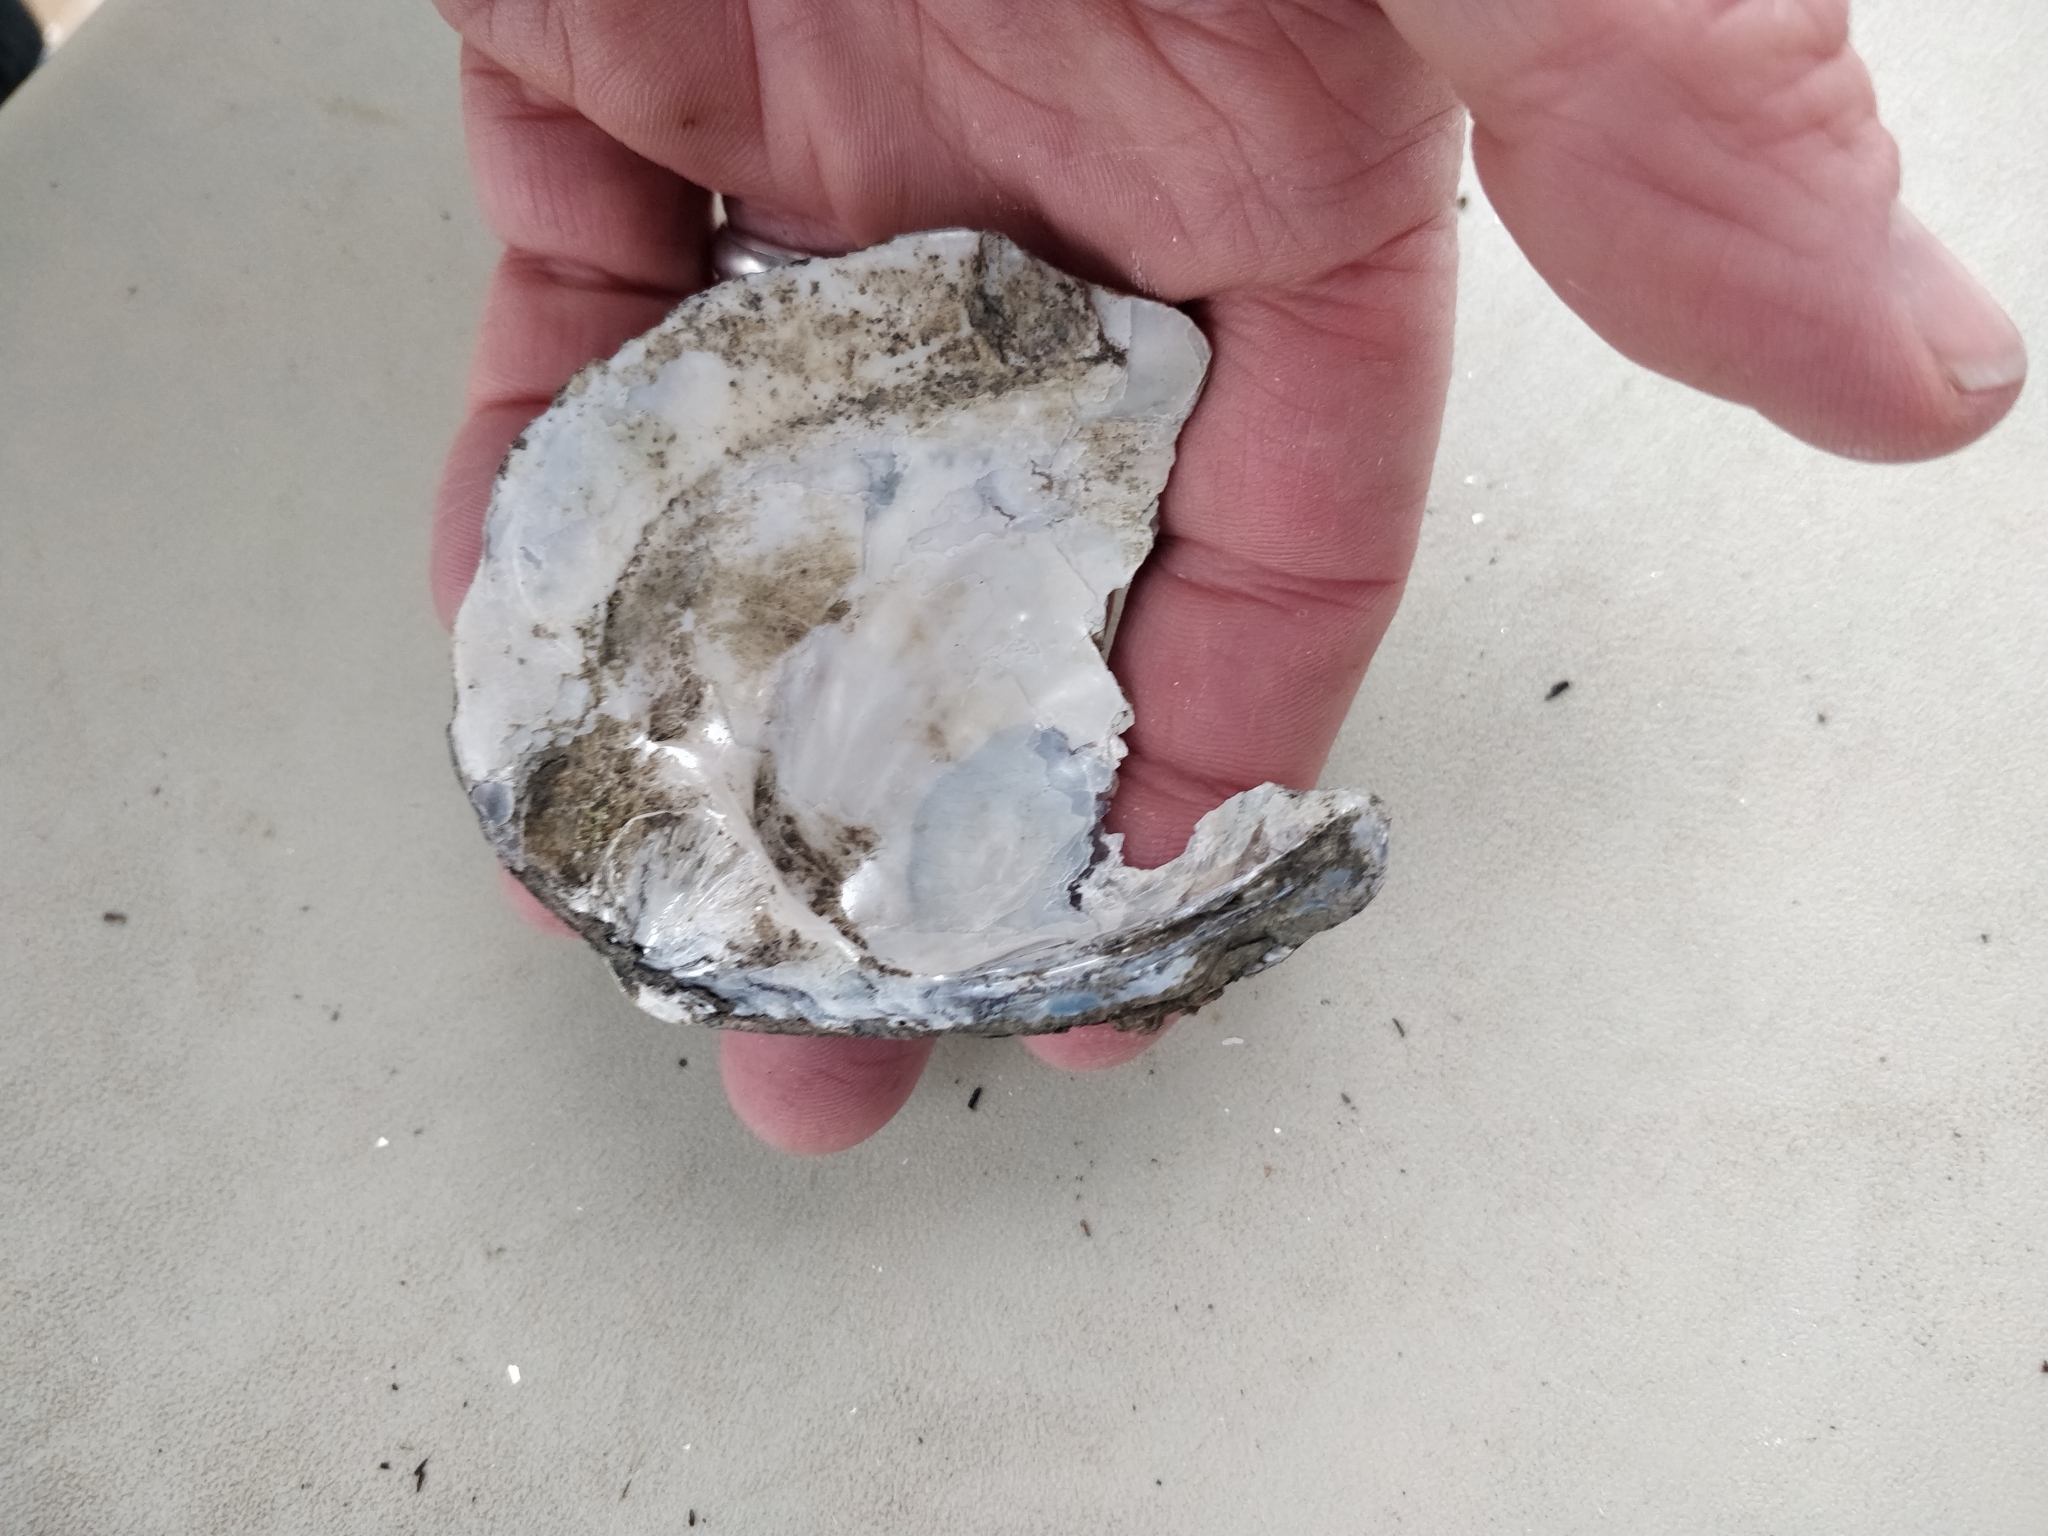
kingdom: Animalia
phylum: Mollusca
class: Bivalvia
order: Unionida
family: Unionidae
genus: Amblema
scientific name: Amblema plicata
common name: Threeridge
